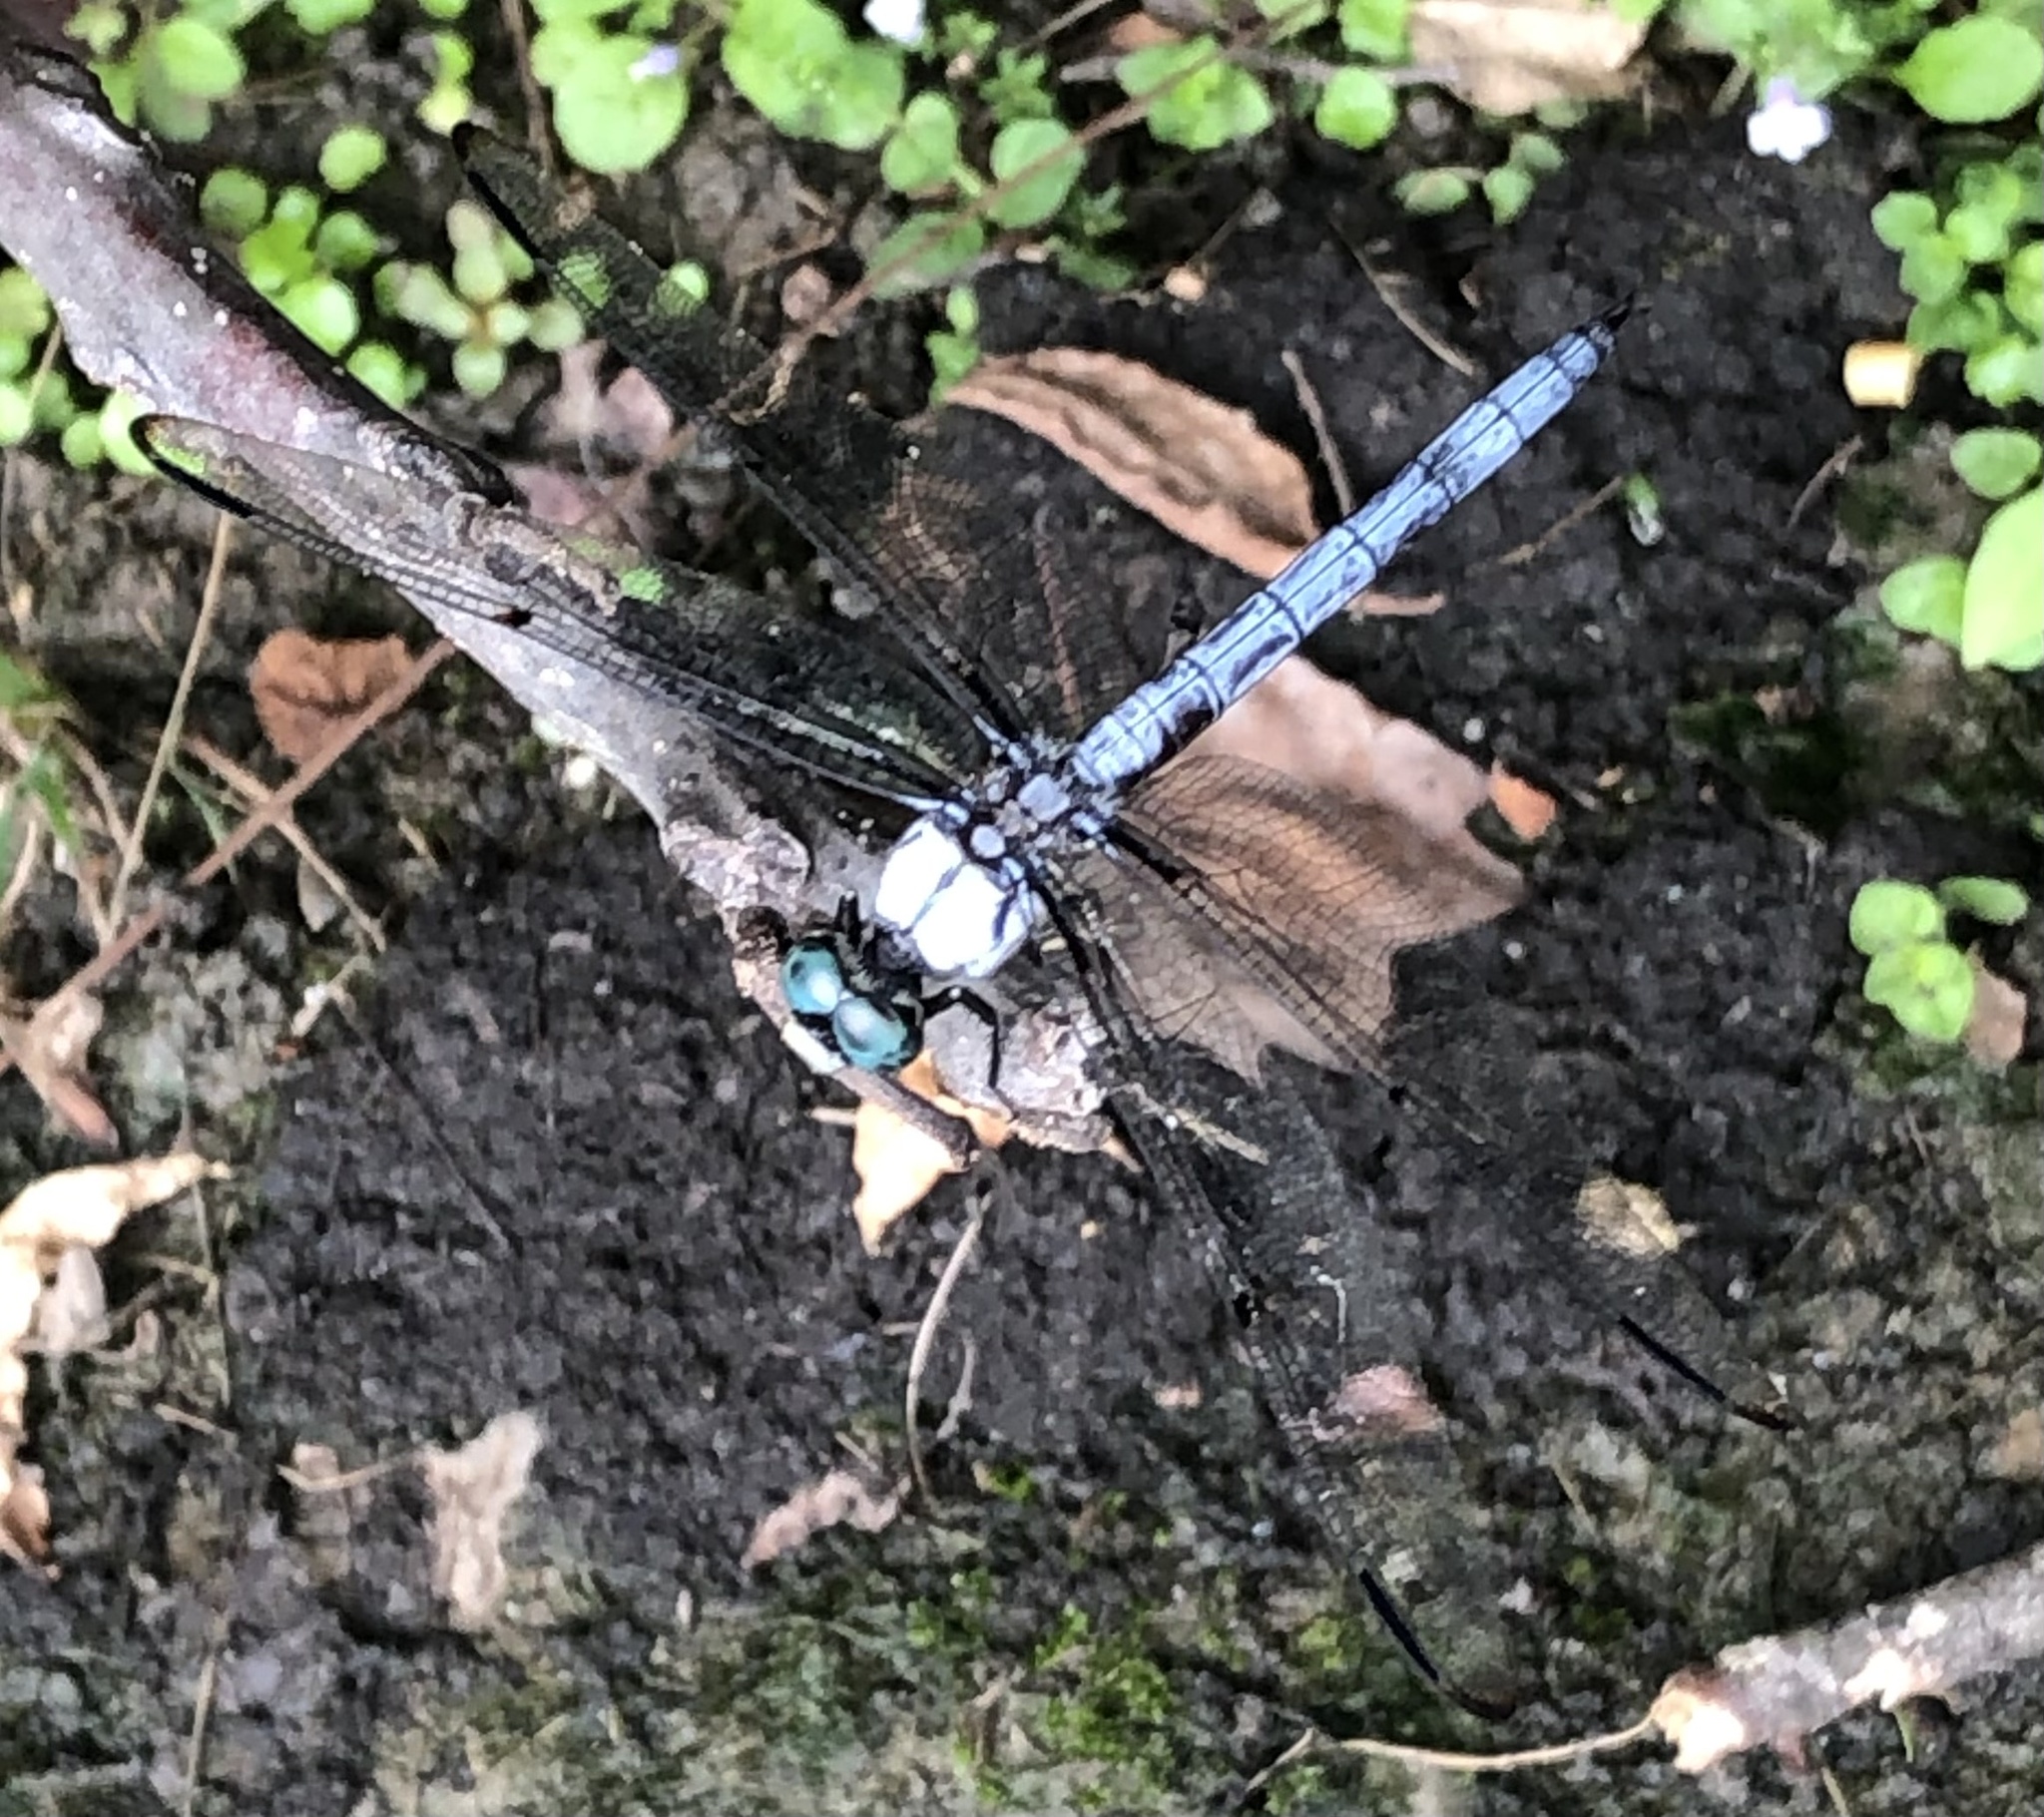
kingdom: Animalia
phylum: Arthropoda
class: Insecta
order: Odonata
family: Libellulidae
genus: Libellula
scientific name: Libellula vibrans
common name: Great blue skimmer
